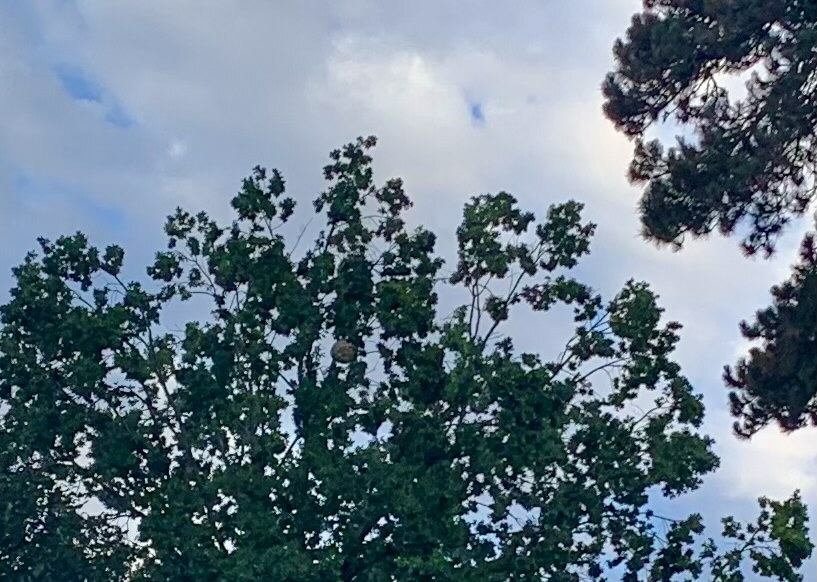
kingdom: Animalia
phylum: Arthropoda
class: Insecta
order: Hymenoptera
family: Vespidae
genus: Vespa
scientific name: Vespa velutina
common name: Asian hornet
